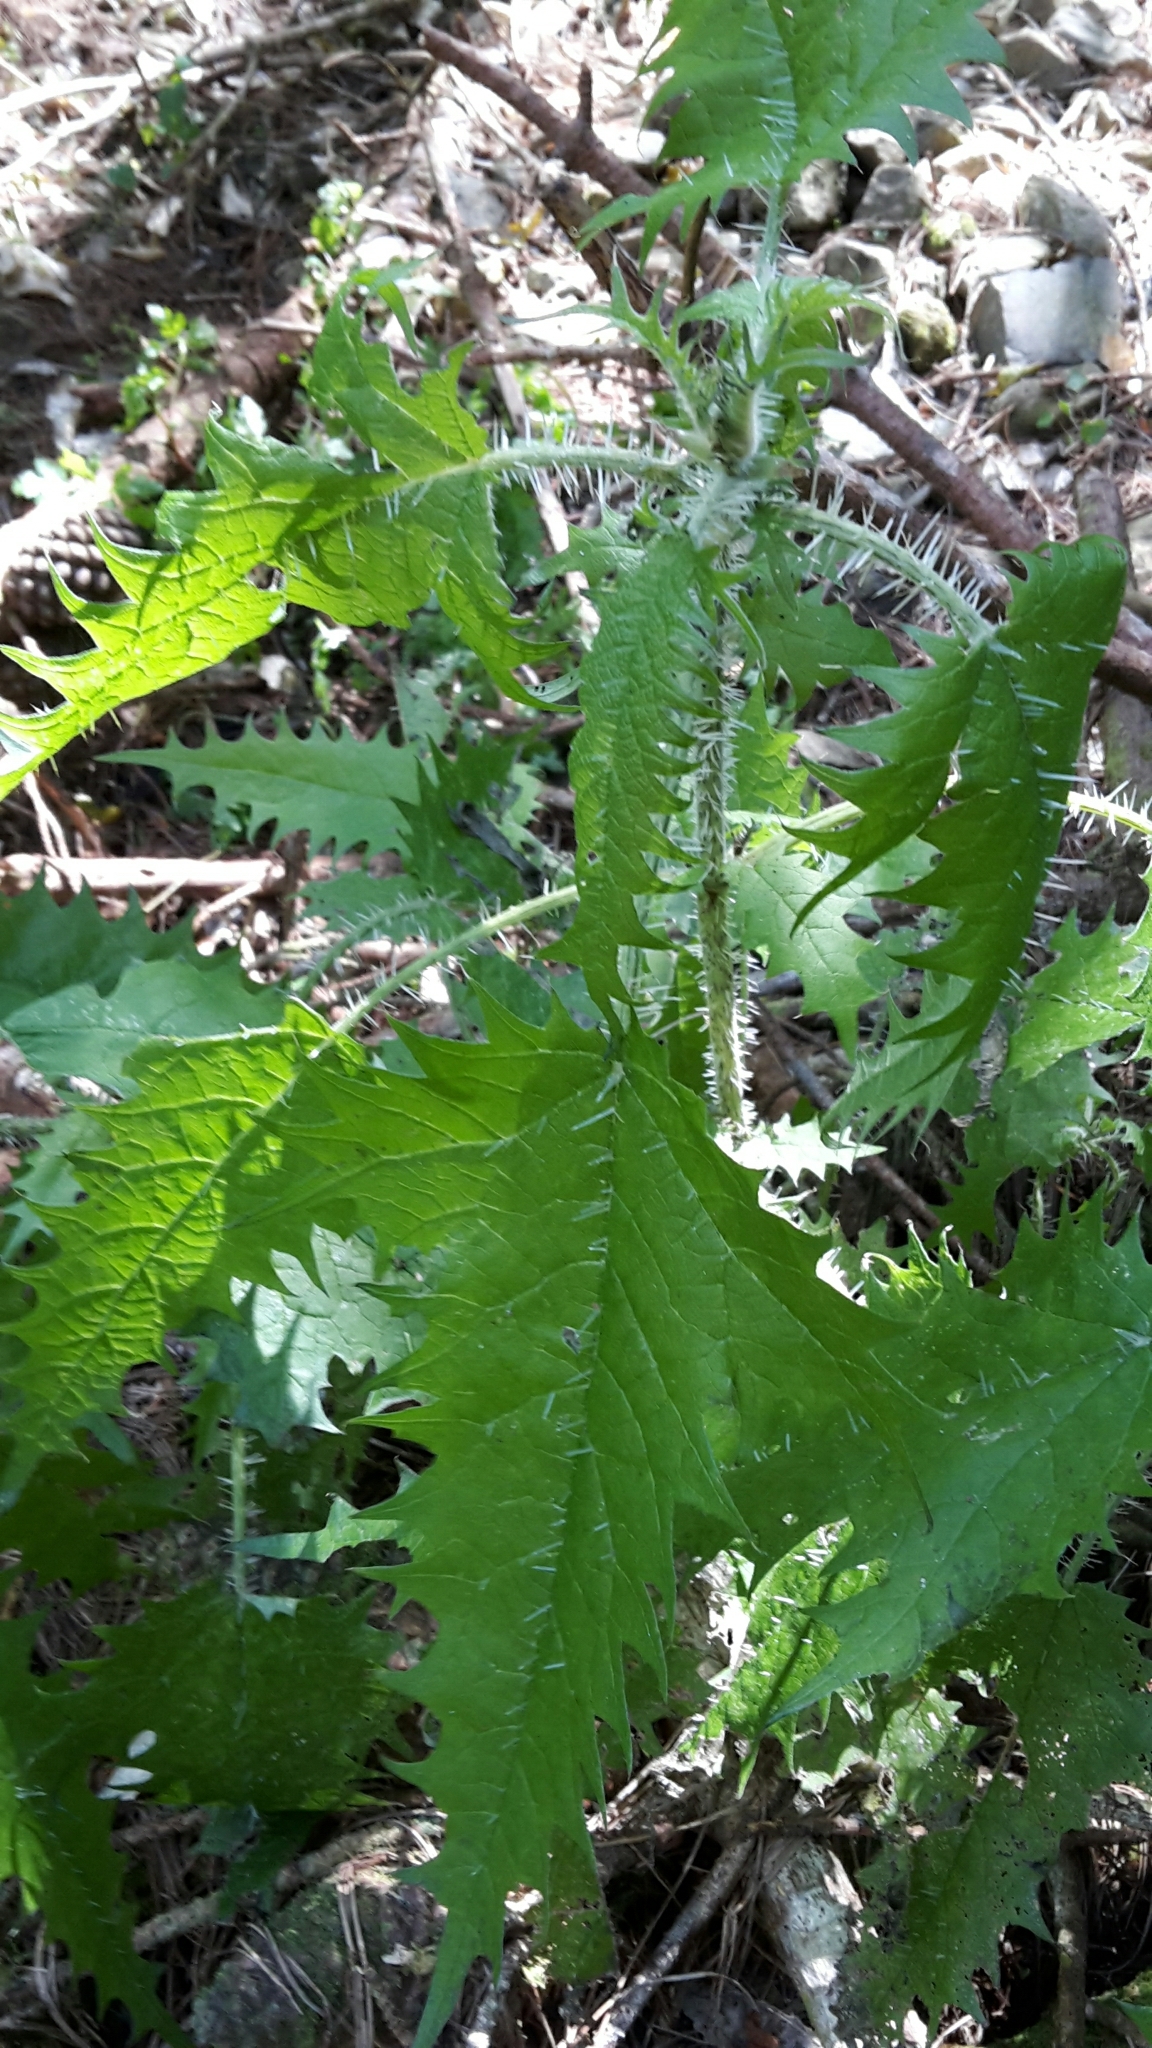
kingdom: Plantae
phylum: Tracheophyta
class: Magnoliopsida
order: Rosales
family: Urticaceae
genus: Urtica
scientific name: Urtica ferox
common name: Tree nettle
